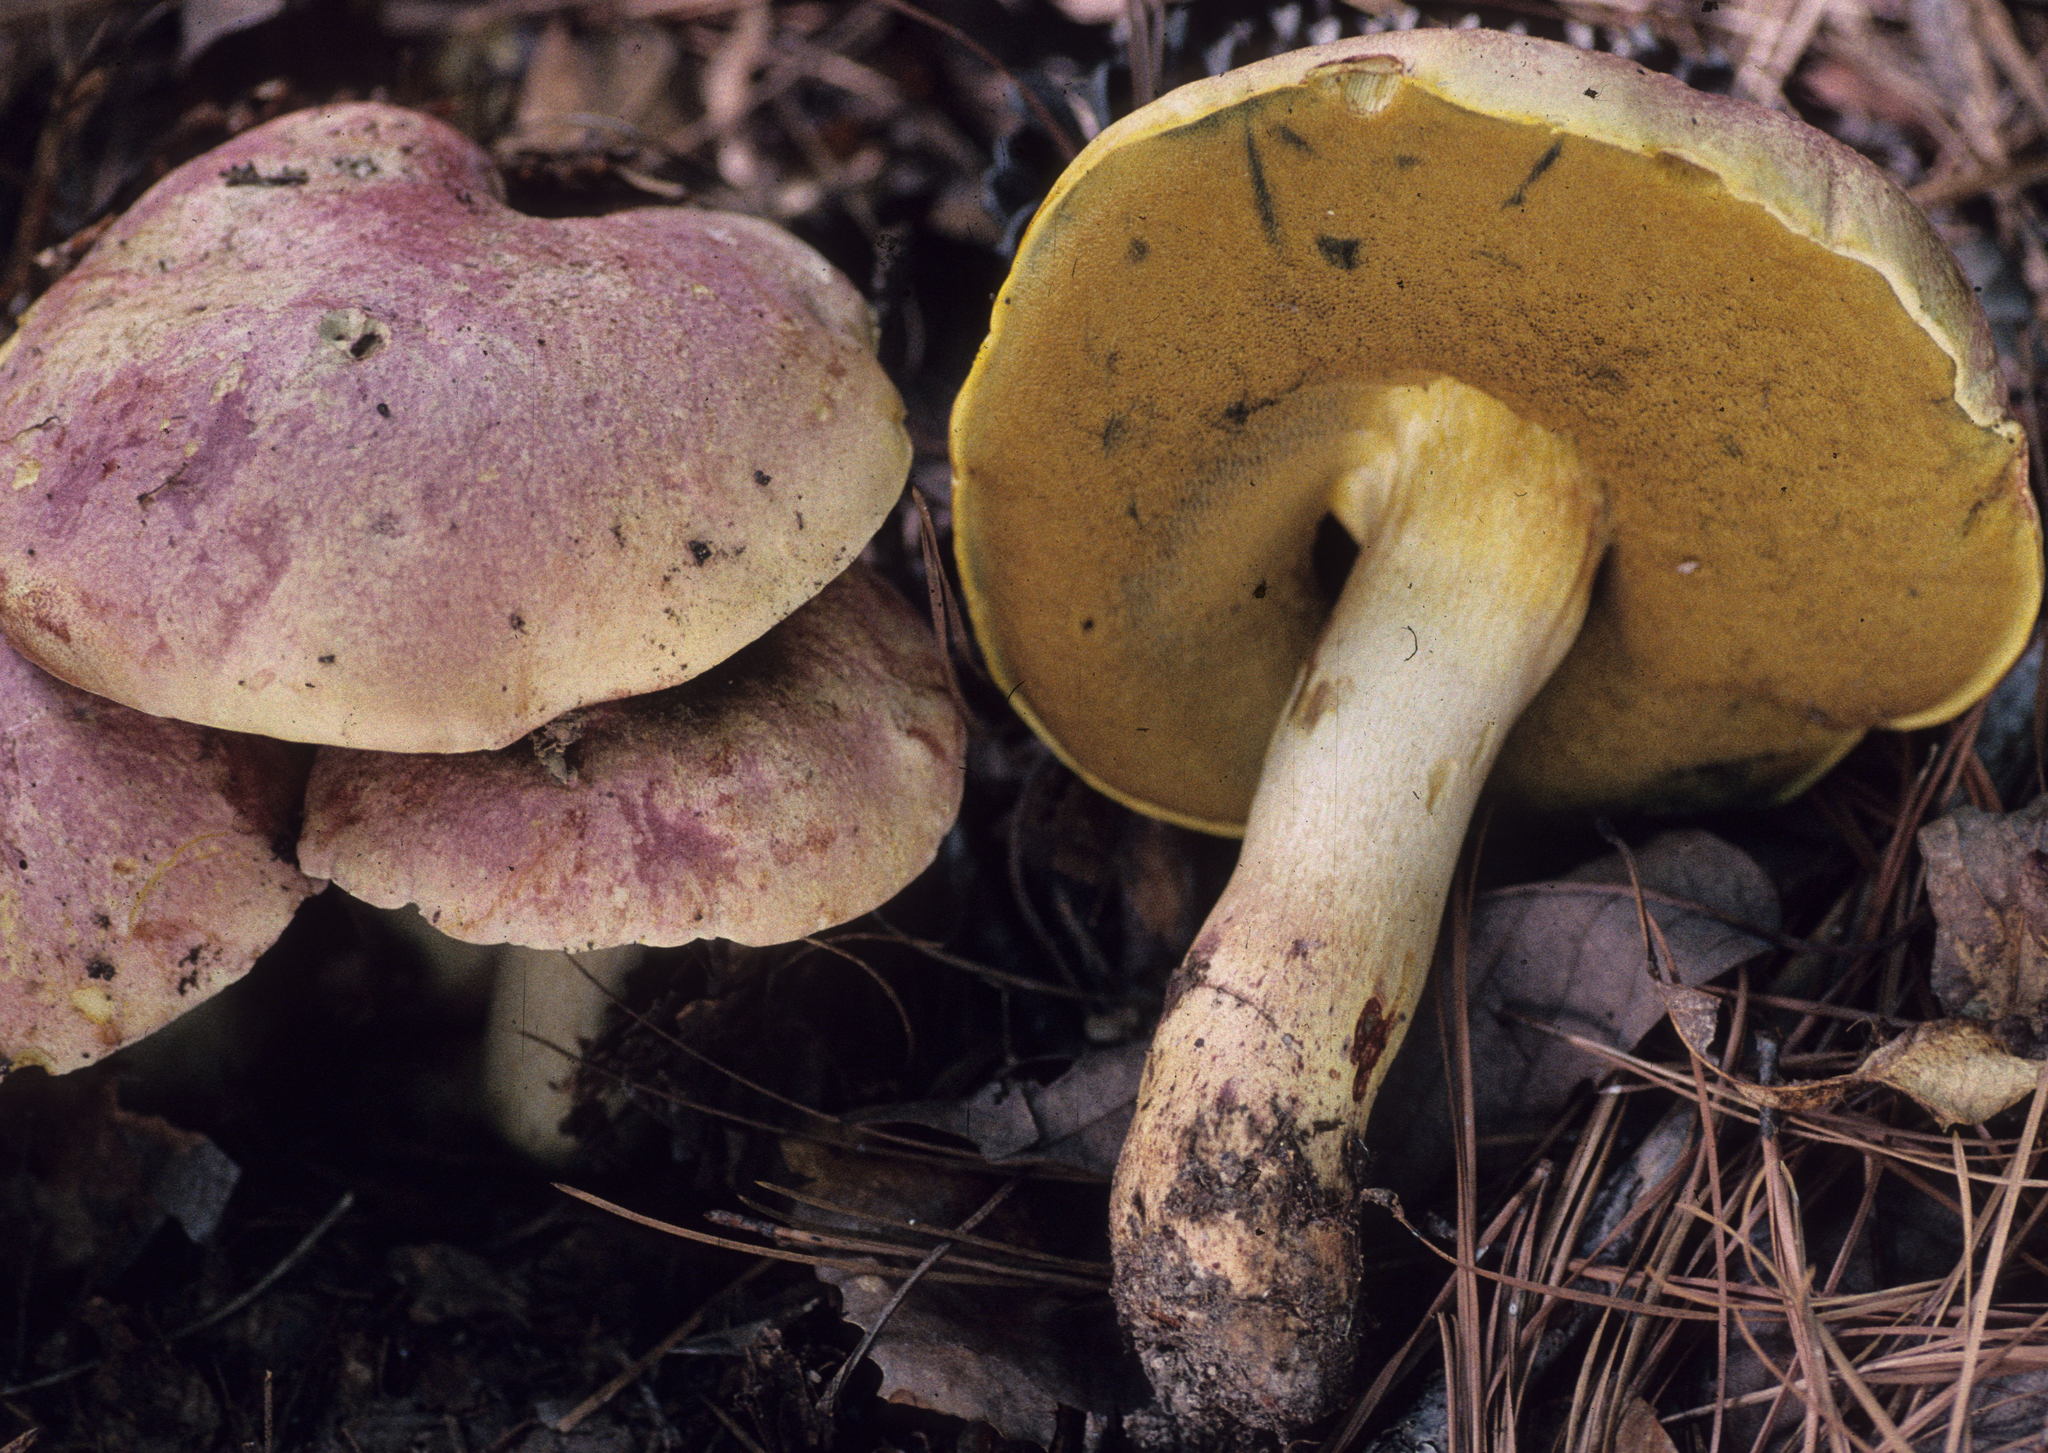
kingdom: Fungi
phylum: Basidiomycota
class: Agaricomycetes
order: Boletales
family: Boletaceae
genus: Butyriboletus
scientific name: Butyriboletus pseudoregius
